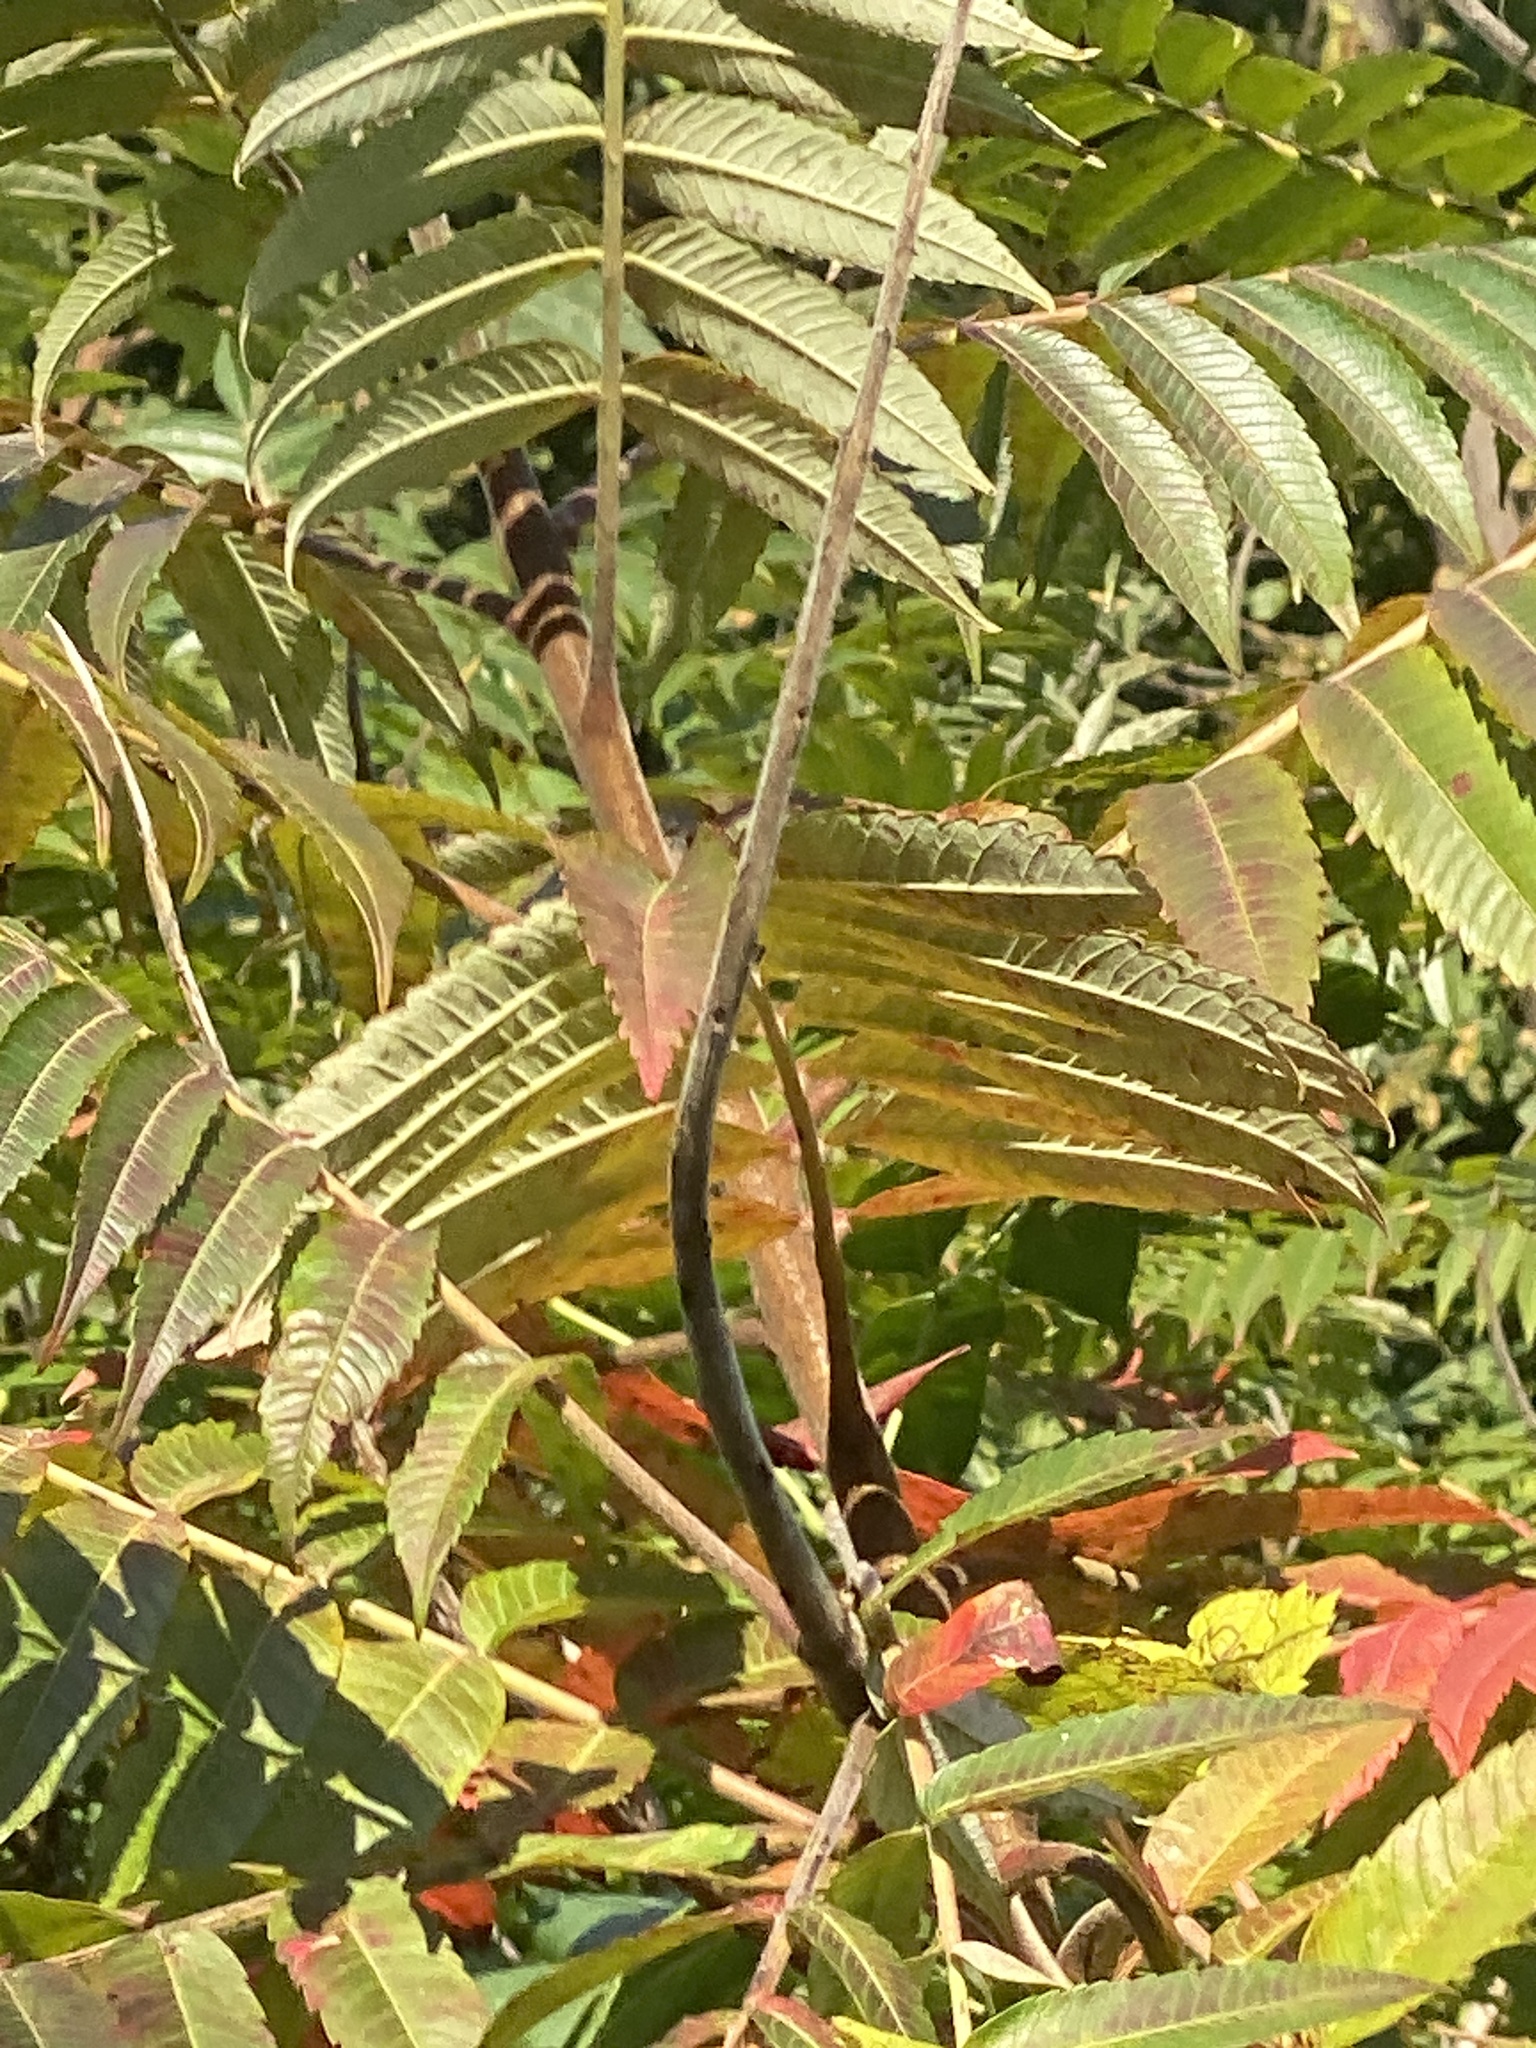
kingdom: Plantae
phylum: Tracheophyta
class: Magnoliopsida
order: Sapindales
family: Anacardiaceae
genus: Rhus
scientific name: Rhus typhina
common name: Staghorn sumac
